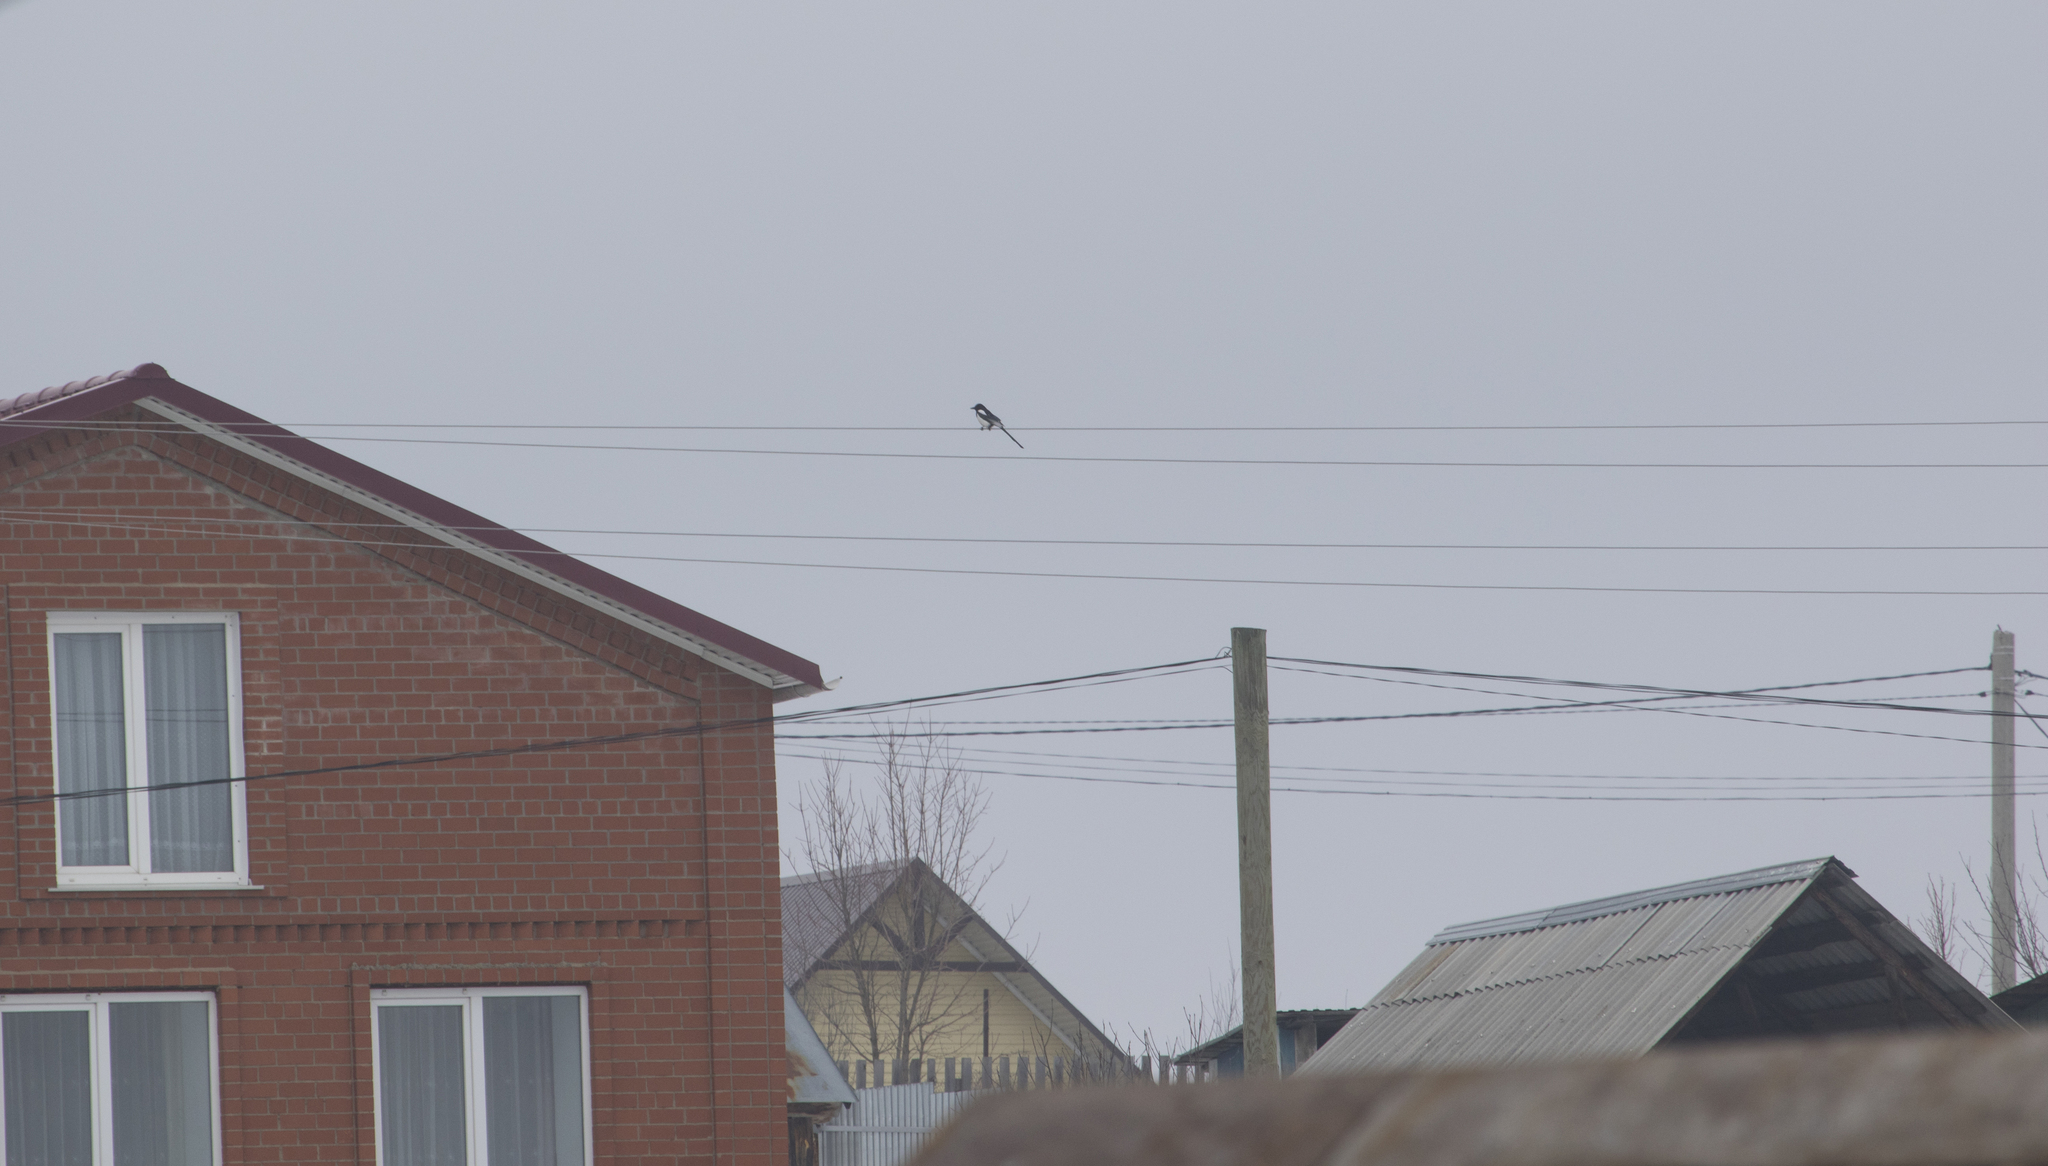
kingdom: Animalia
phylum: Chordata
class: Aves
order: Passeriformes
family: Corvidae
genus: Pica
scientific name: Pica pica
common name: Eurasian magpie
